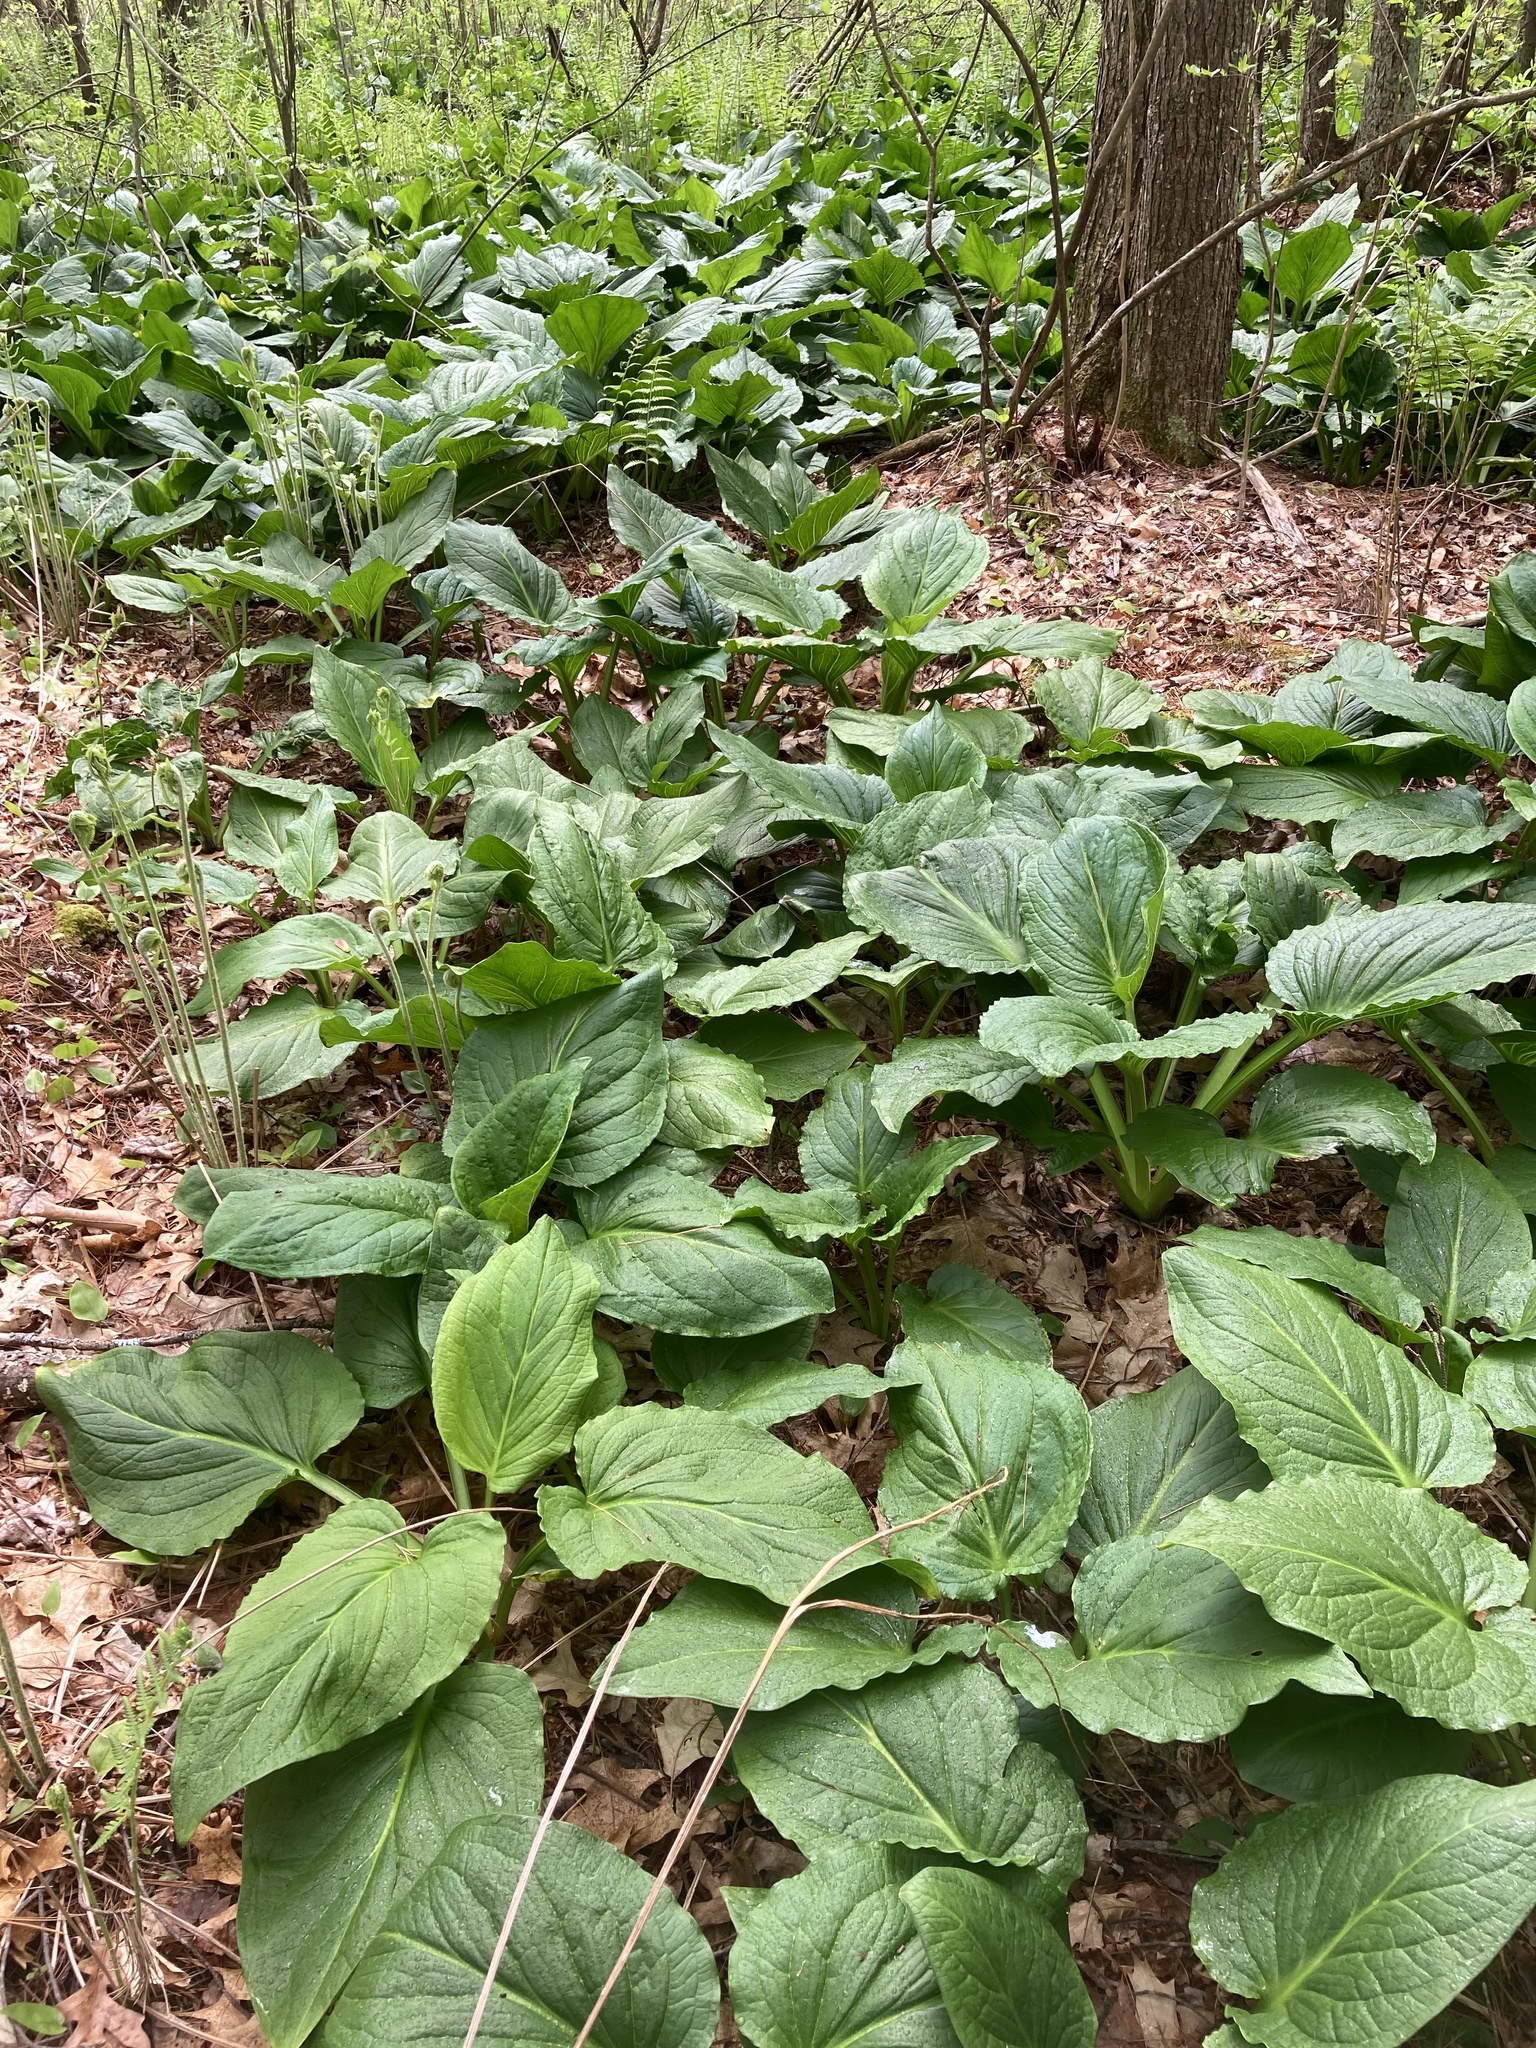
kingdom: Plantae
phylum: Tracheophyta
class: Liliopsida
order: Alismatales
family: Araceae
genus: Symplocarpus
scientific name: Symplocarpus foetidus
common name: Eastern skunk cabbage
